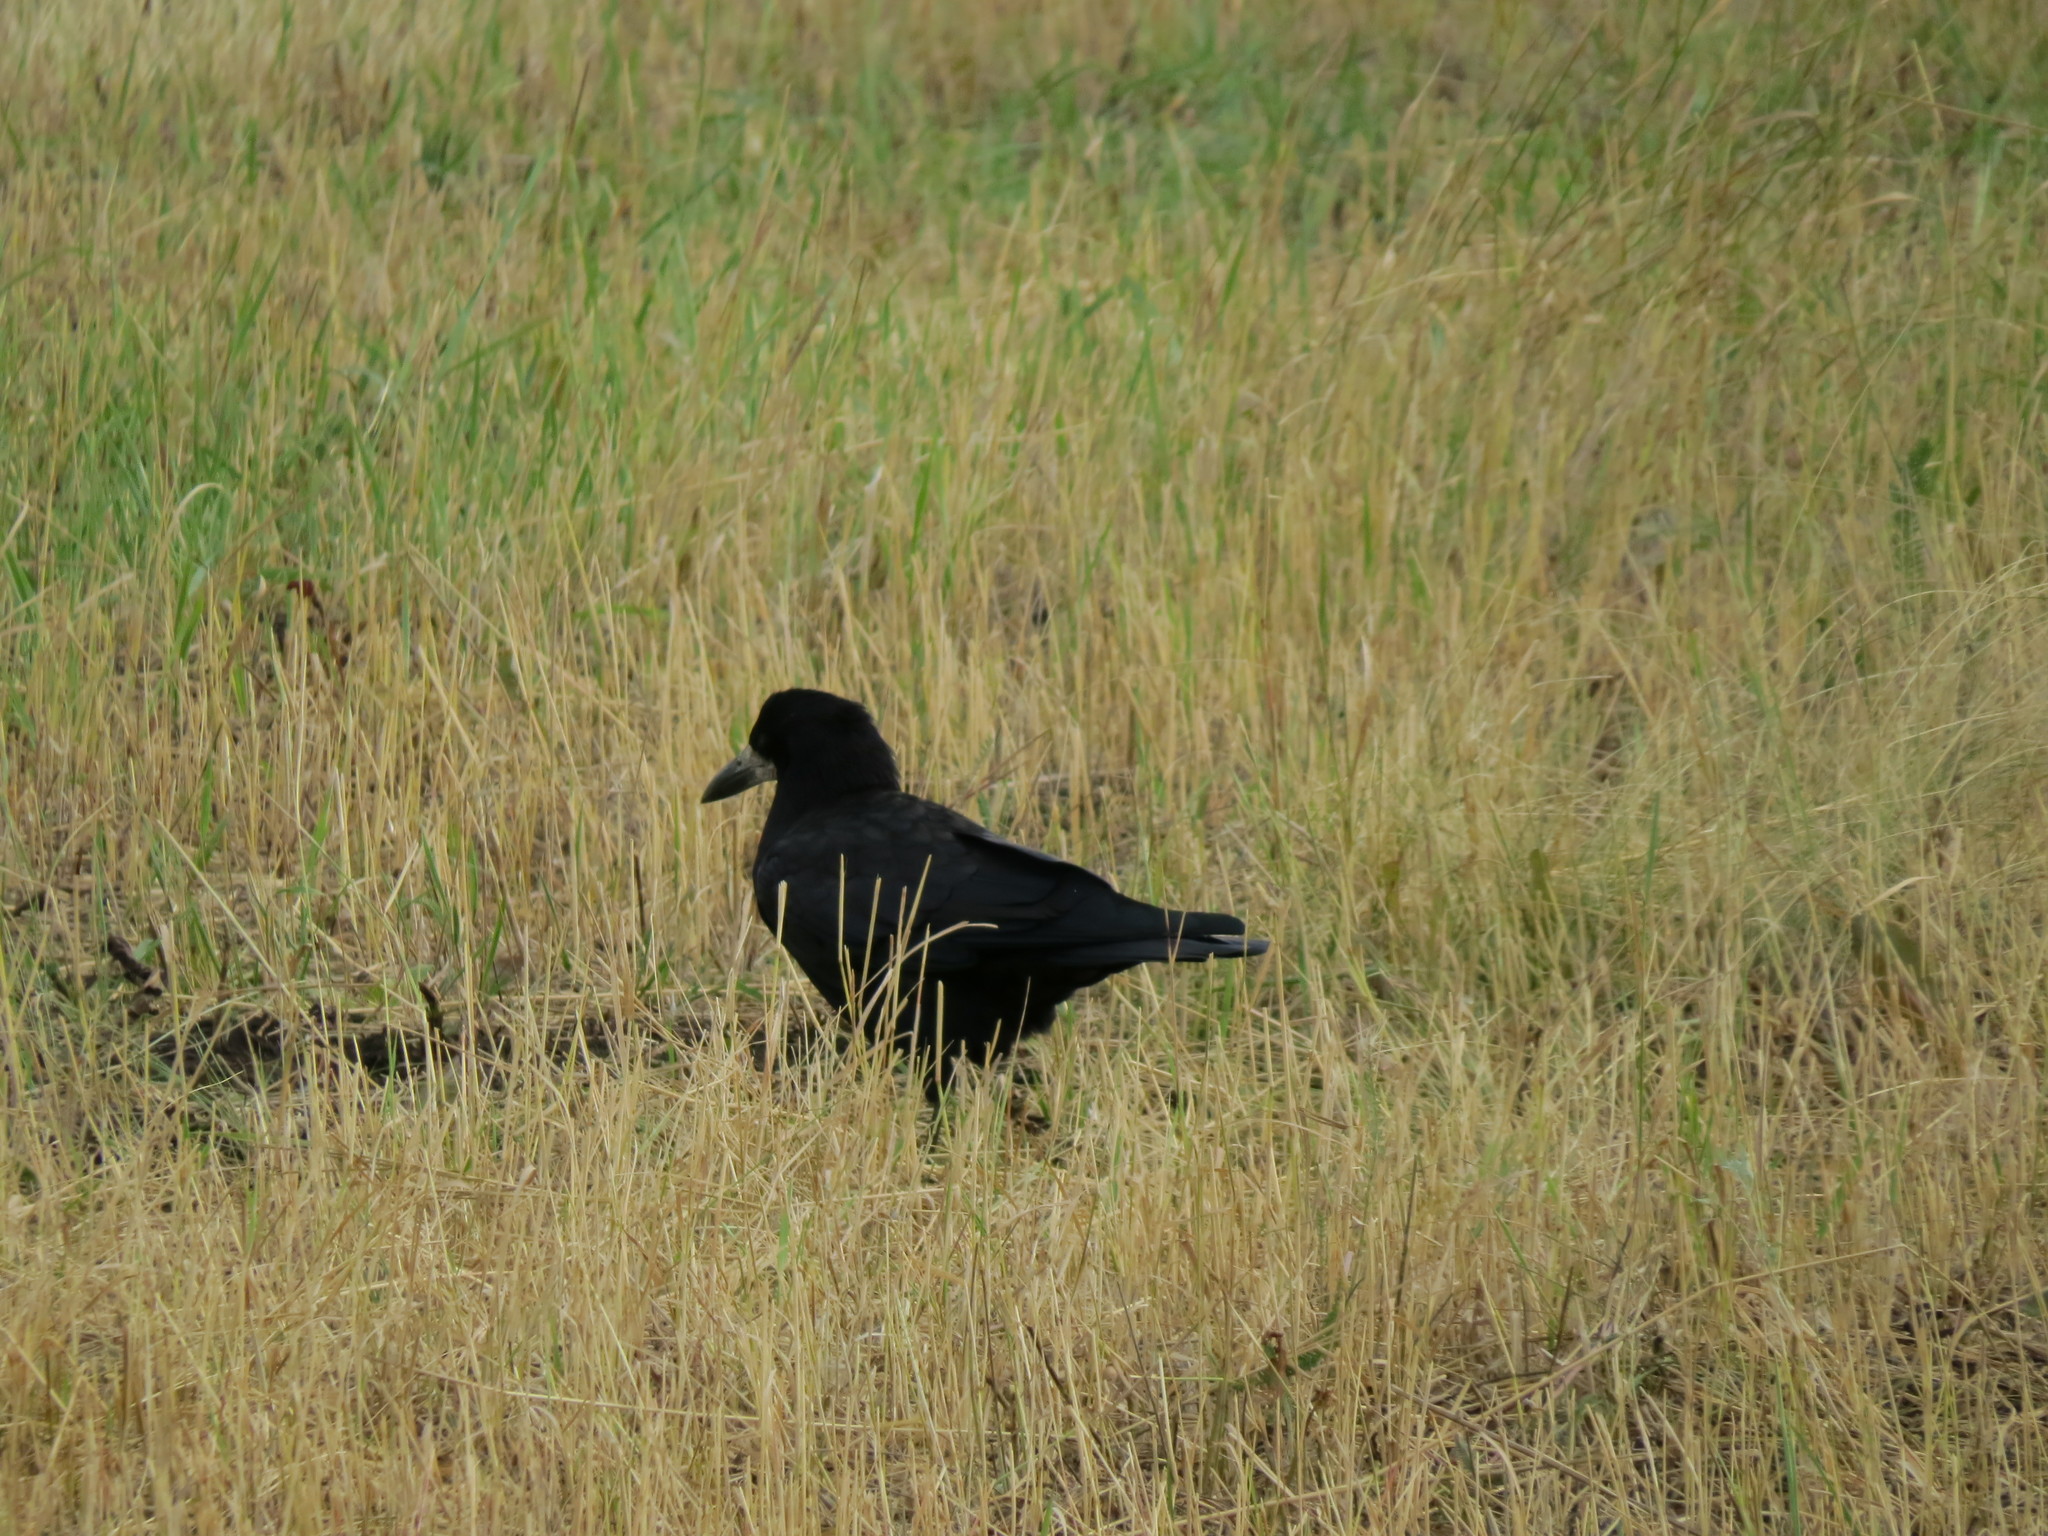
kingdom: Animalia
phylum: Chordata
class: Aves
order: Passeriformes
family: Corvidae
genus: Corvus
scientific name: Corvus frugilegus
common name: Rook
